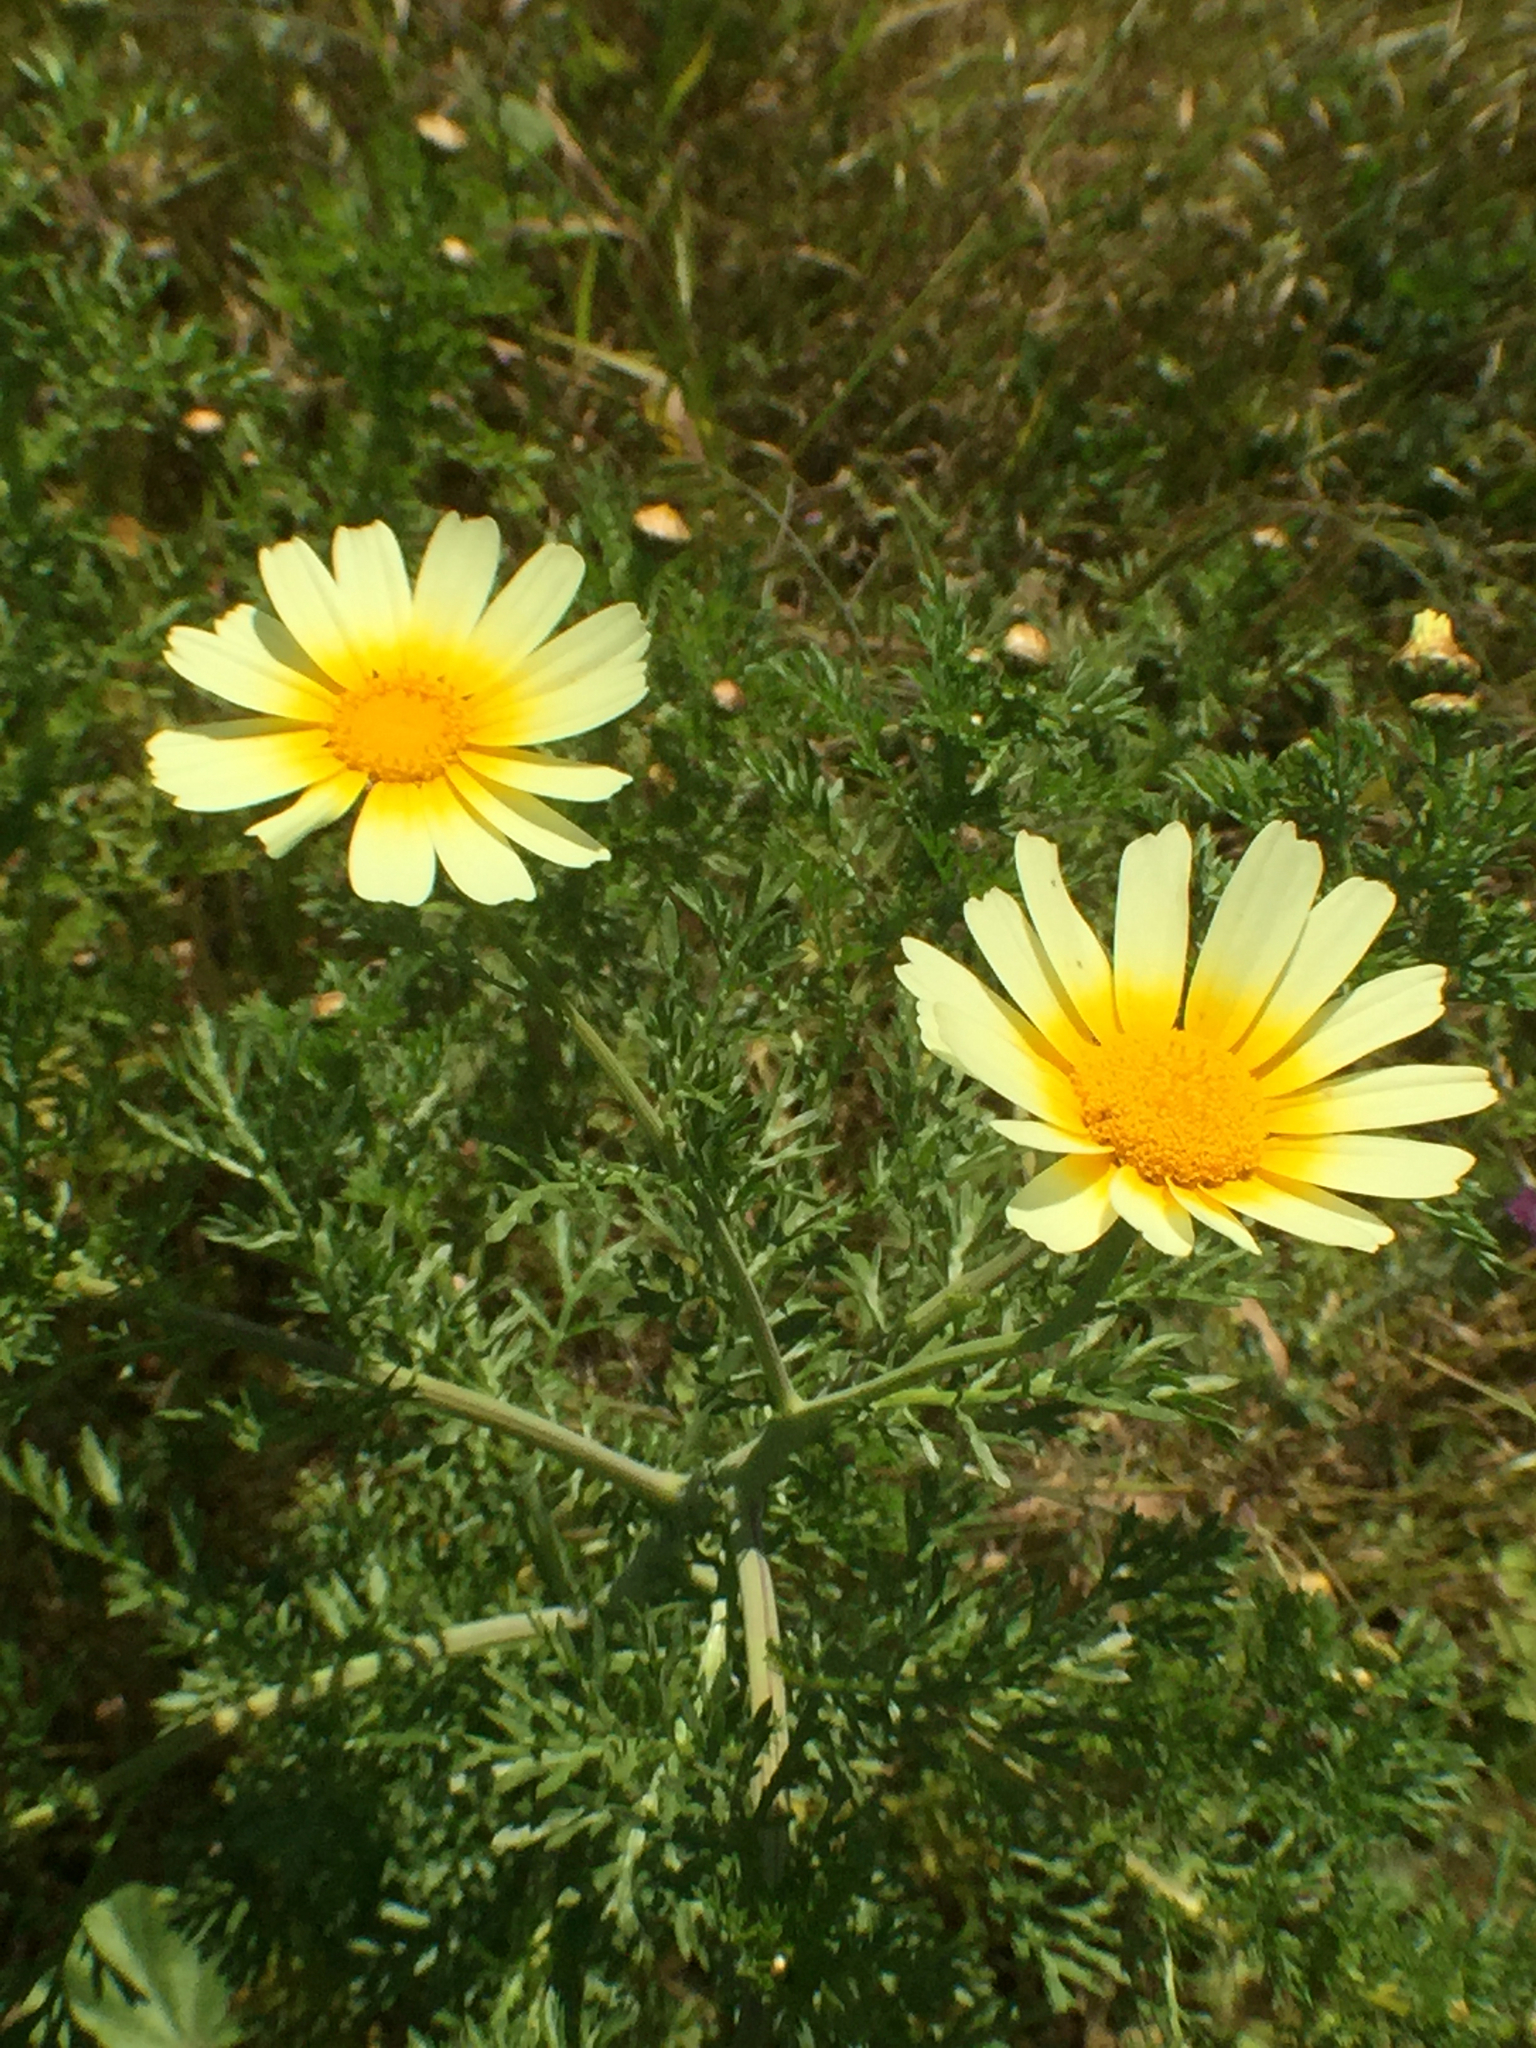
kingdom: Plantae
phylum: Tracheophyta
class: Magnoliopsida
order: Asterales
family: Asteraceae
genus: Glebionis
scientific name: Glebionis coronaria
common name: Crowndaisy
